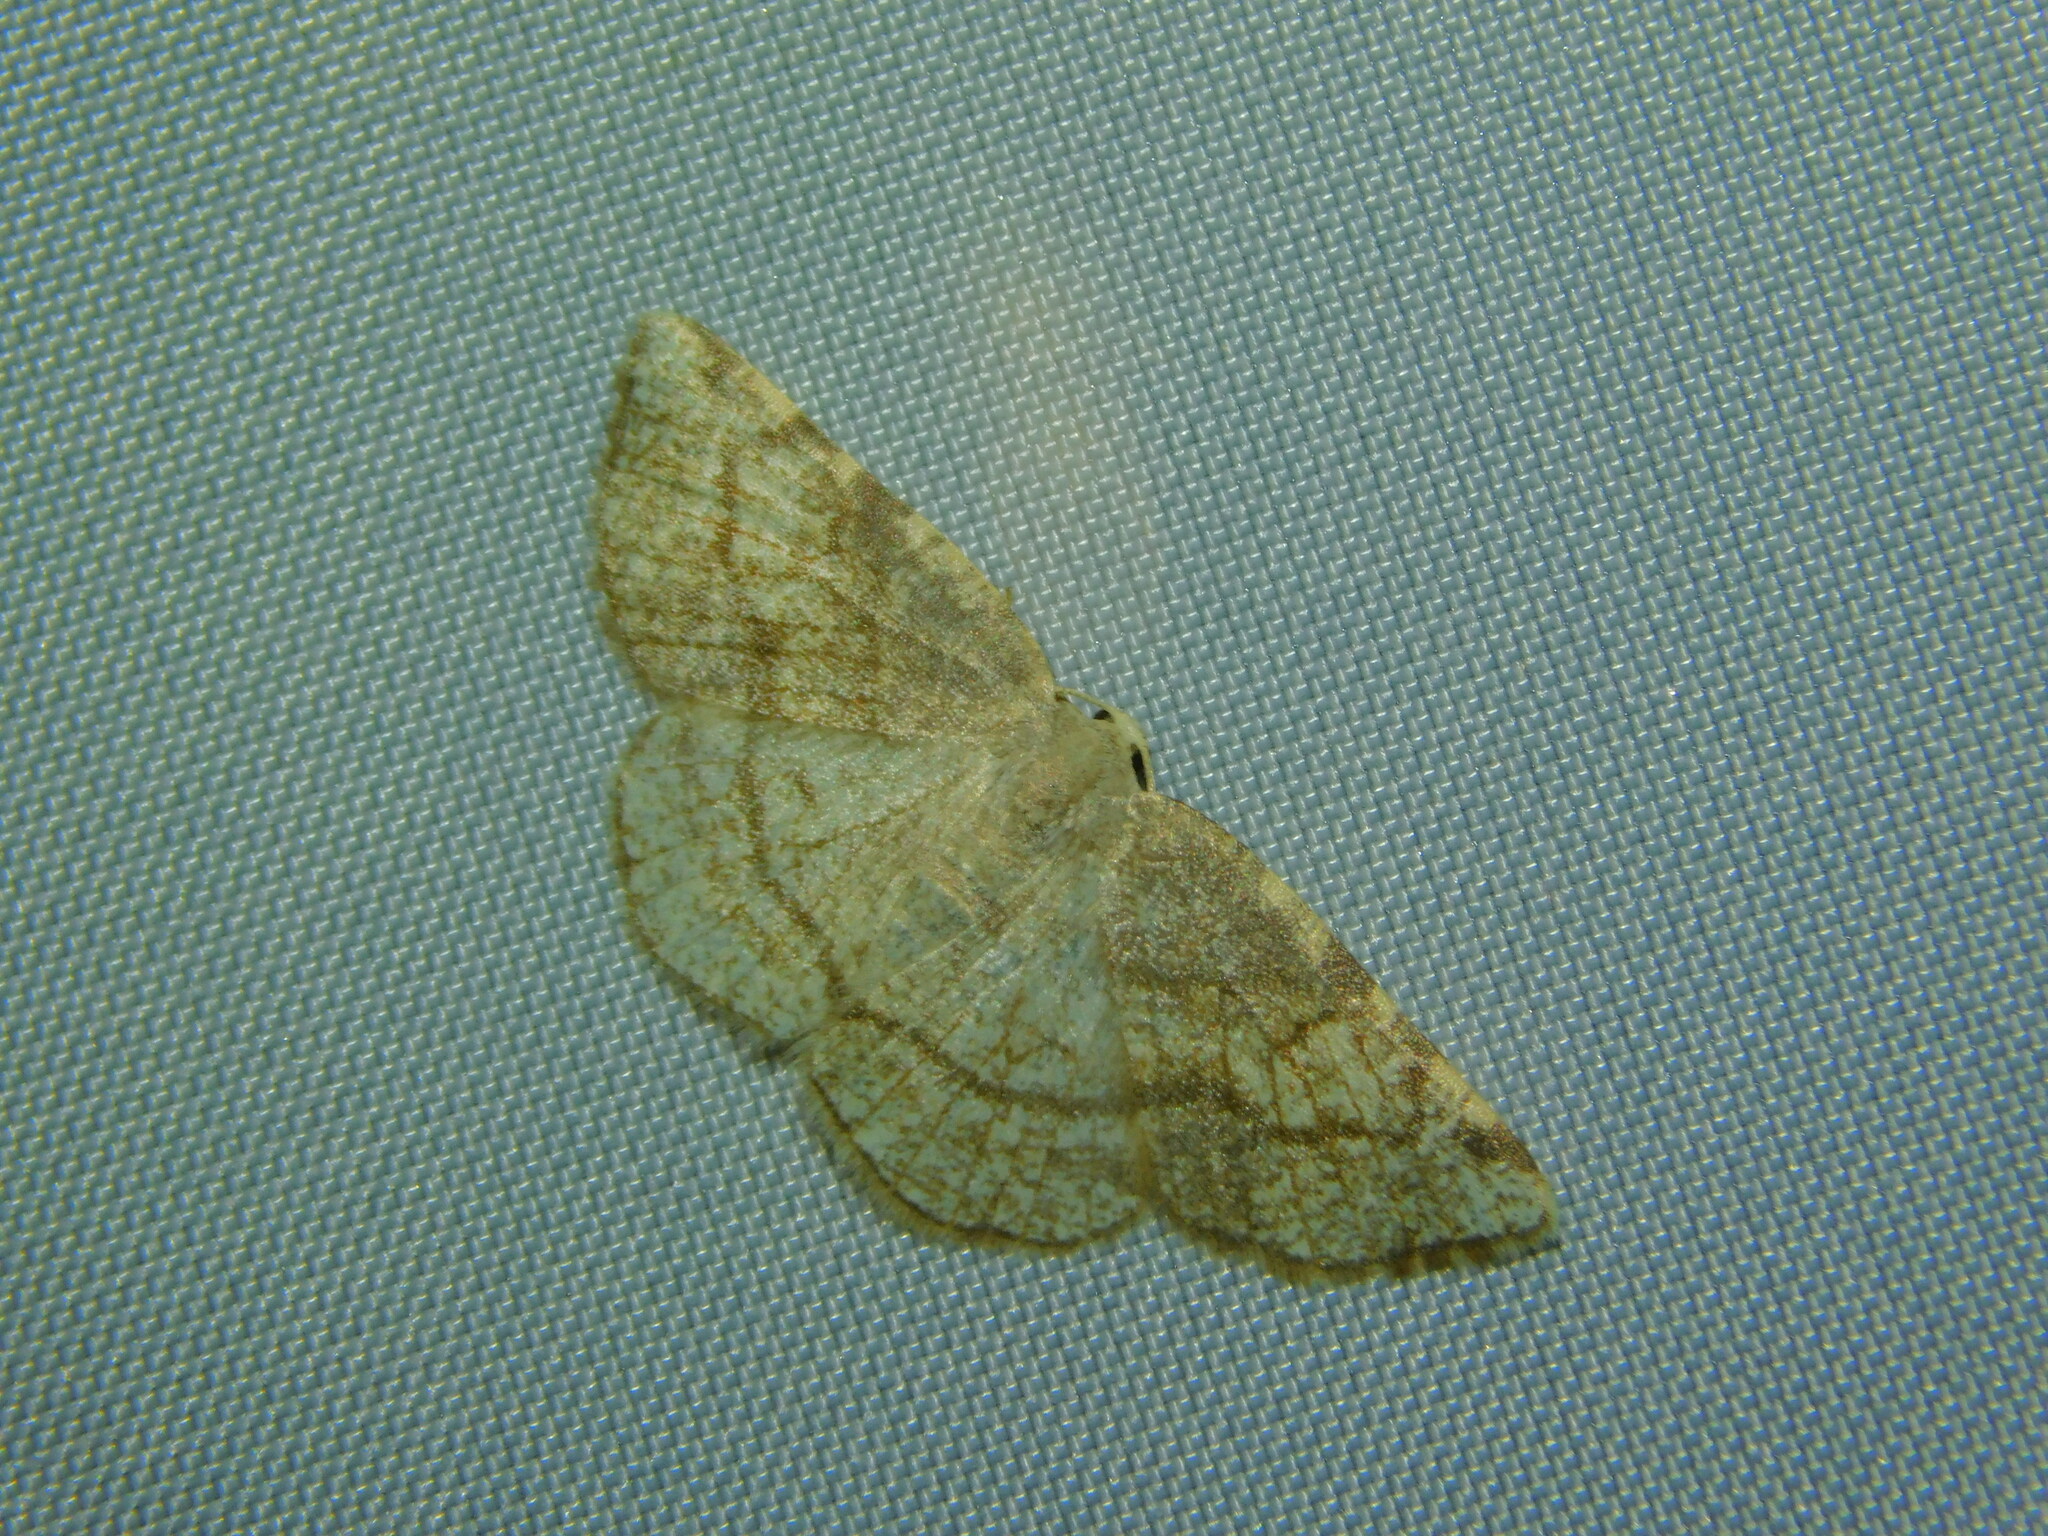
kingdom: Animalia
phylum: Arthropoda
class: Insecta
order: Lepidoptera
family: Geometridae
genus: Stegania
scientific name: Stegania trimaculata
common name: Dorset cream wave
